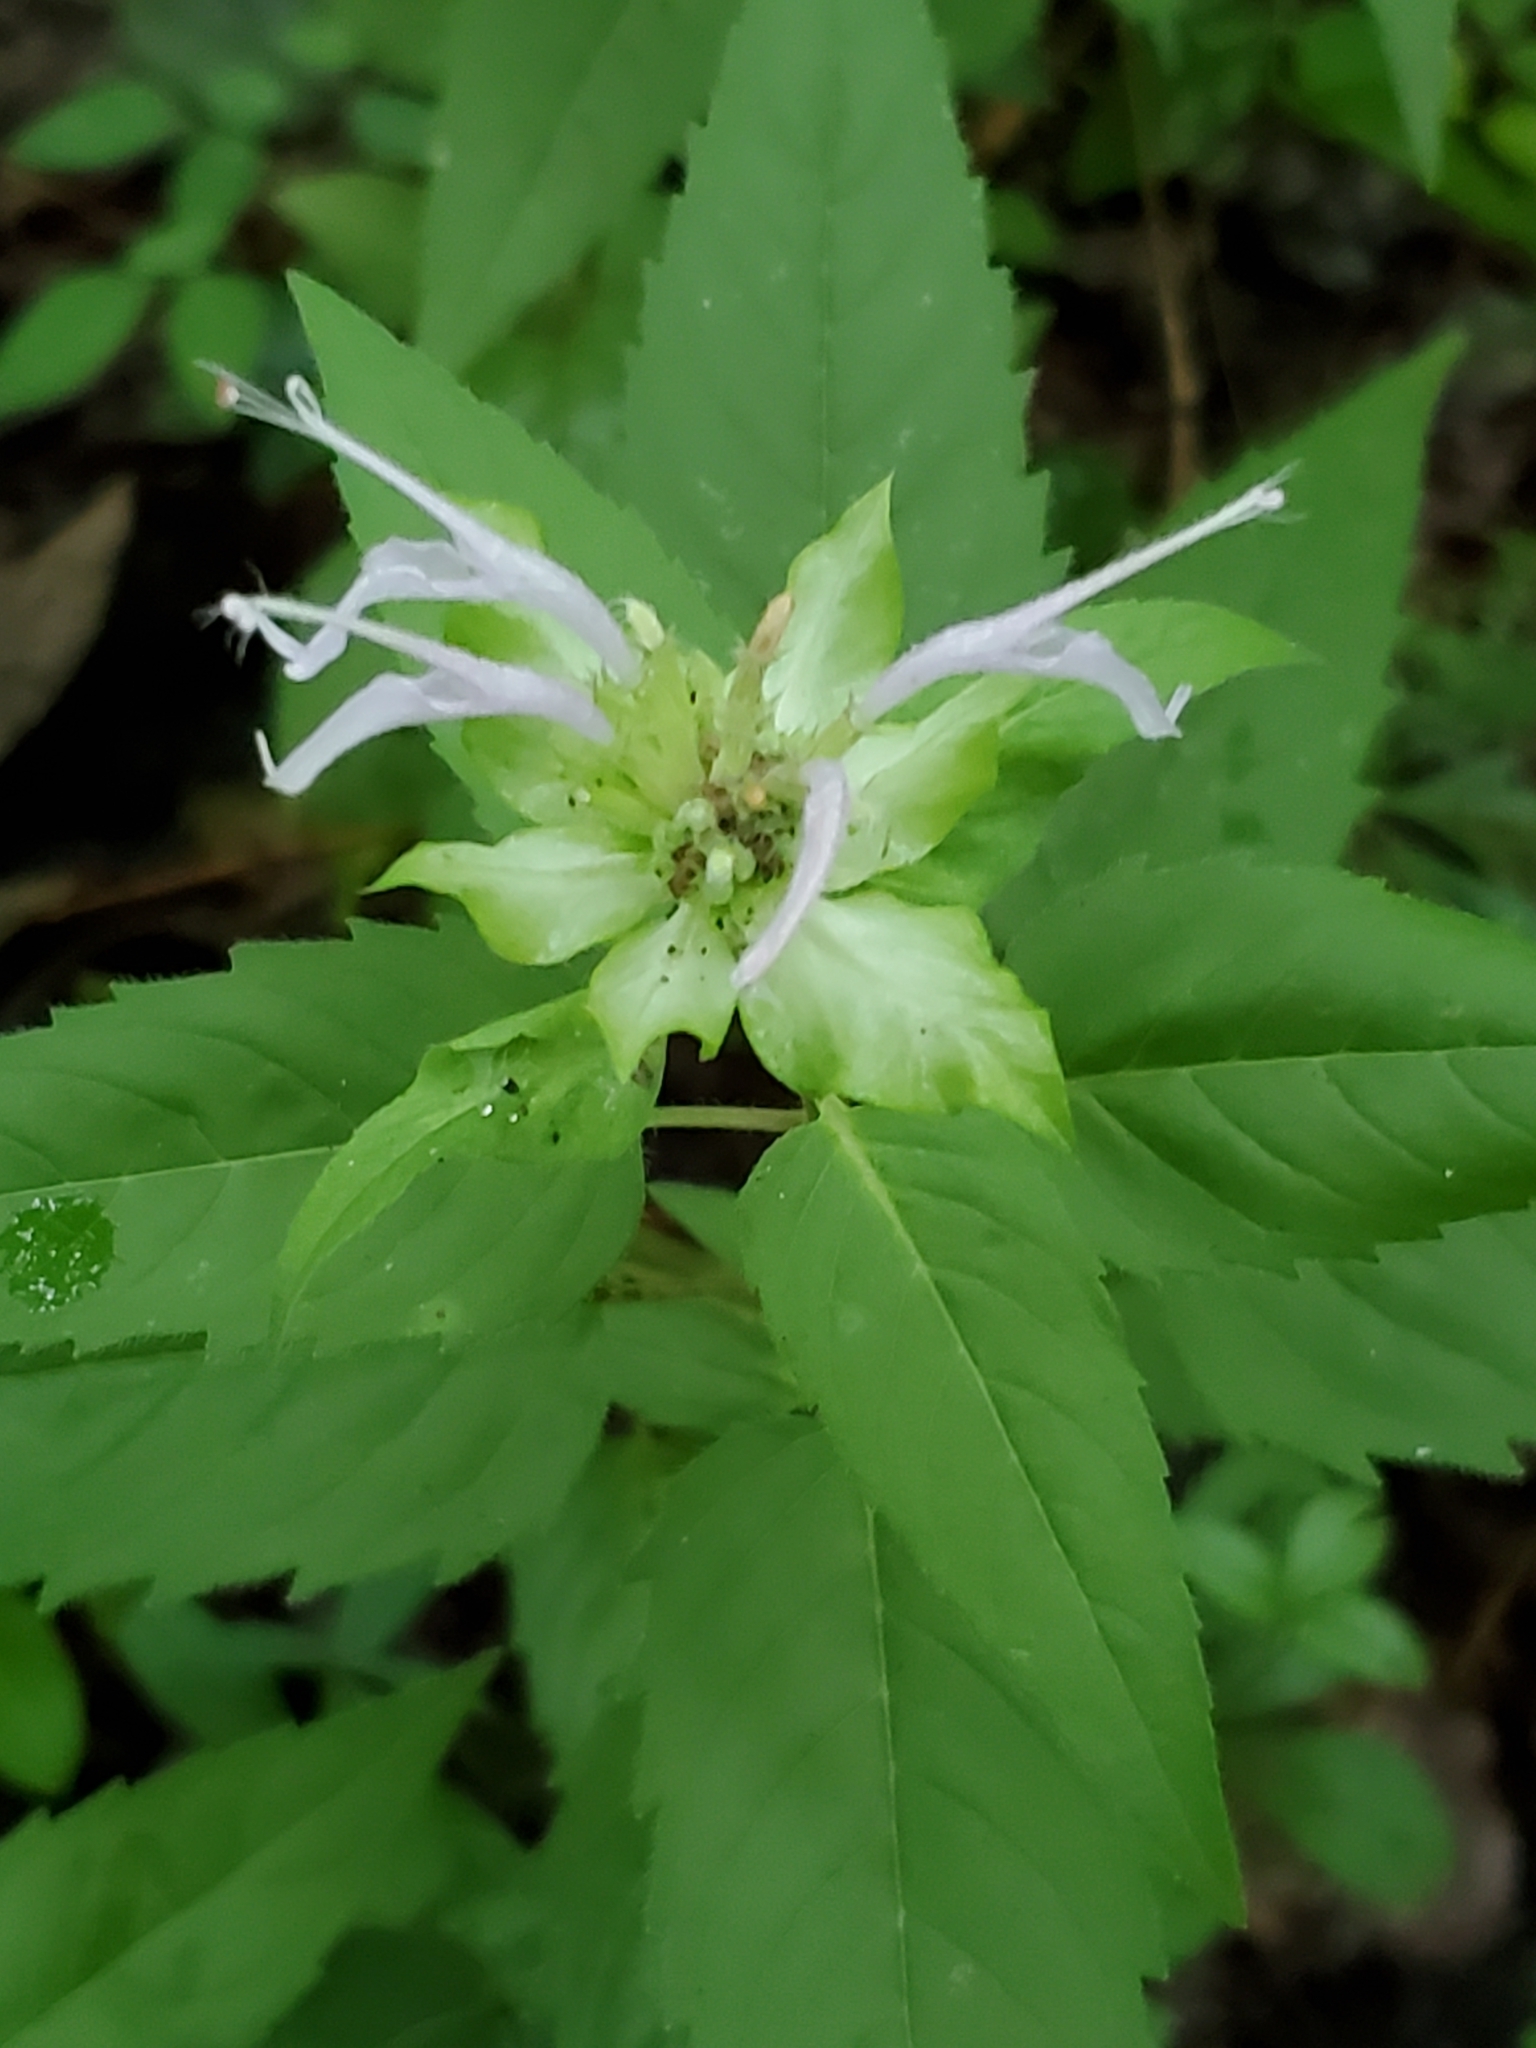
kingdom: Plantae
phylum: Tracheophyta
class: Magnoliopsida
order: Lamiales
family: Lamiaceae
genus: Monarda
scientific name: Monarda fistulosa
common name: Purple beebalm
